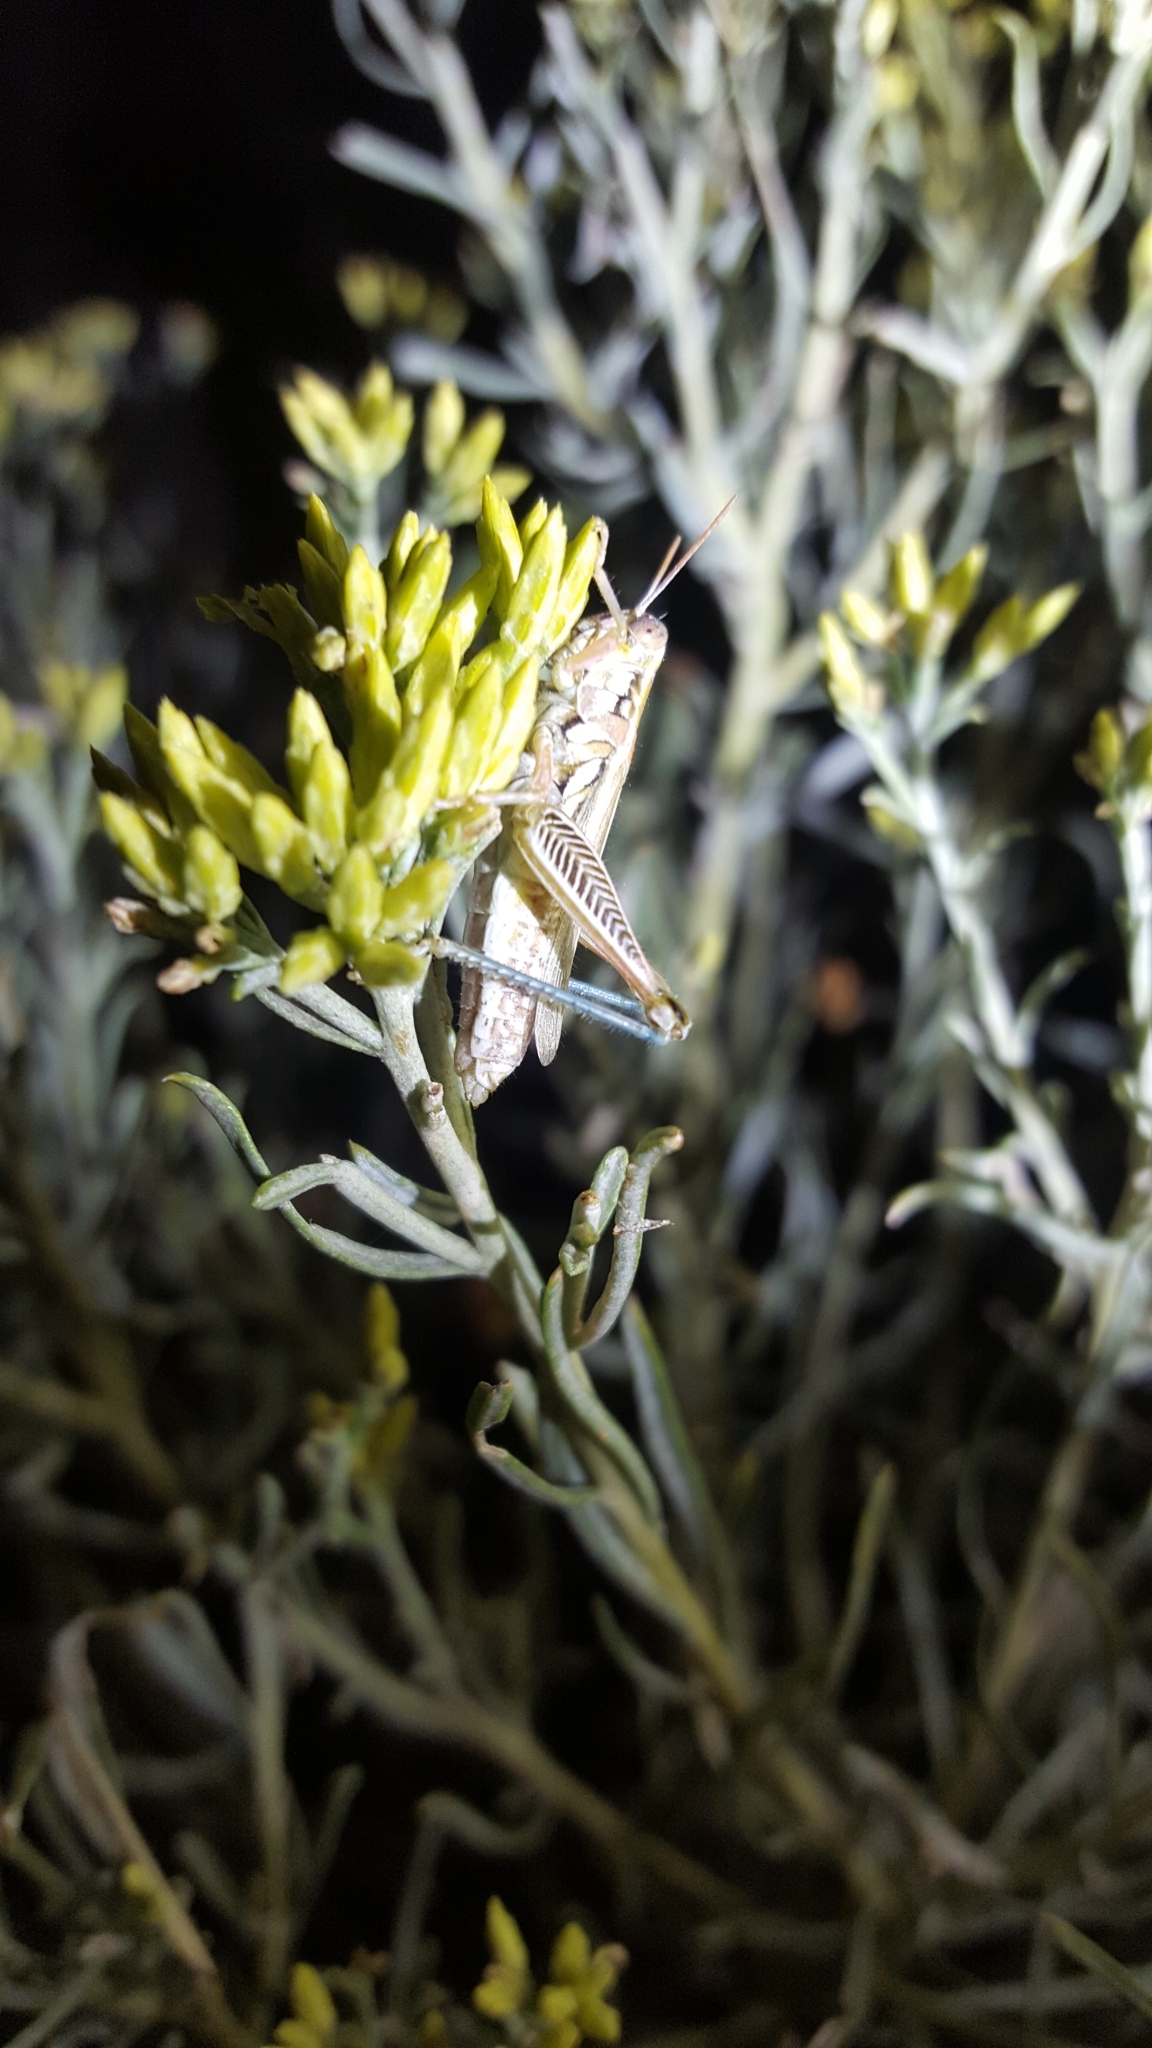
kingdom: Animalia
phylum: Arthropoda
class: Insecta
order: Orthoptera
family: Acrididae
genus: Hesperotettix
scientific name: Hesperotettix viridis
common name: Meadow purple-striped grasshopper
